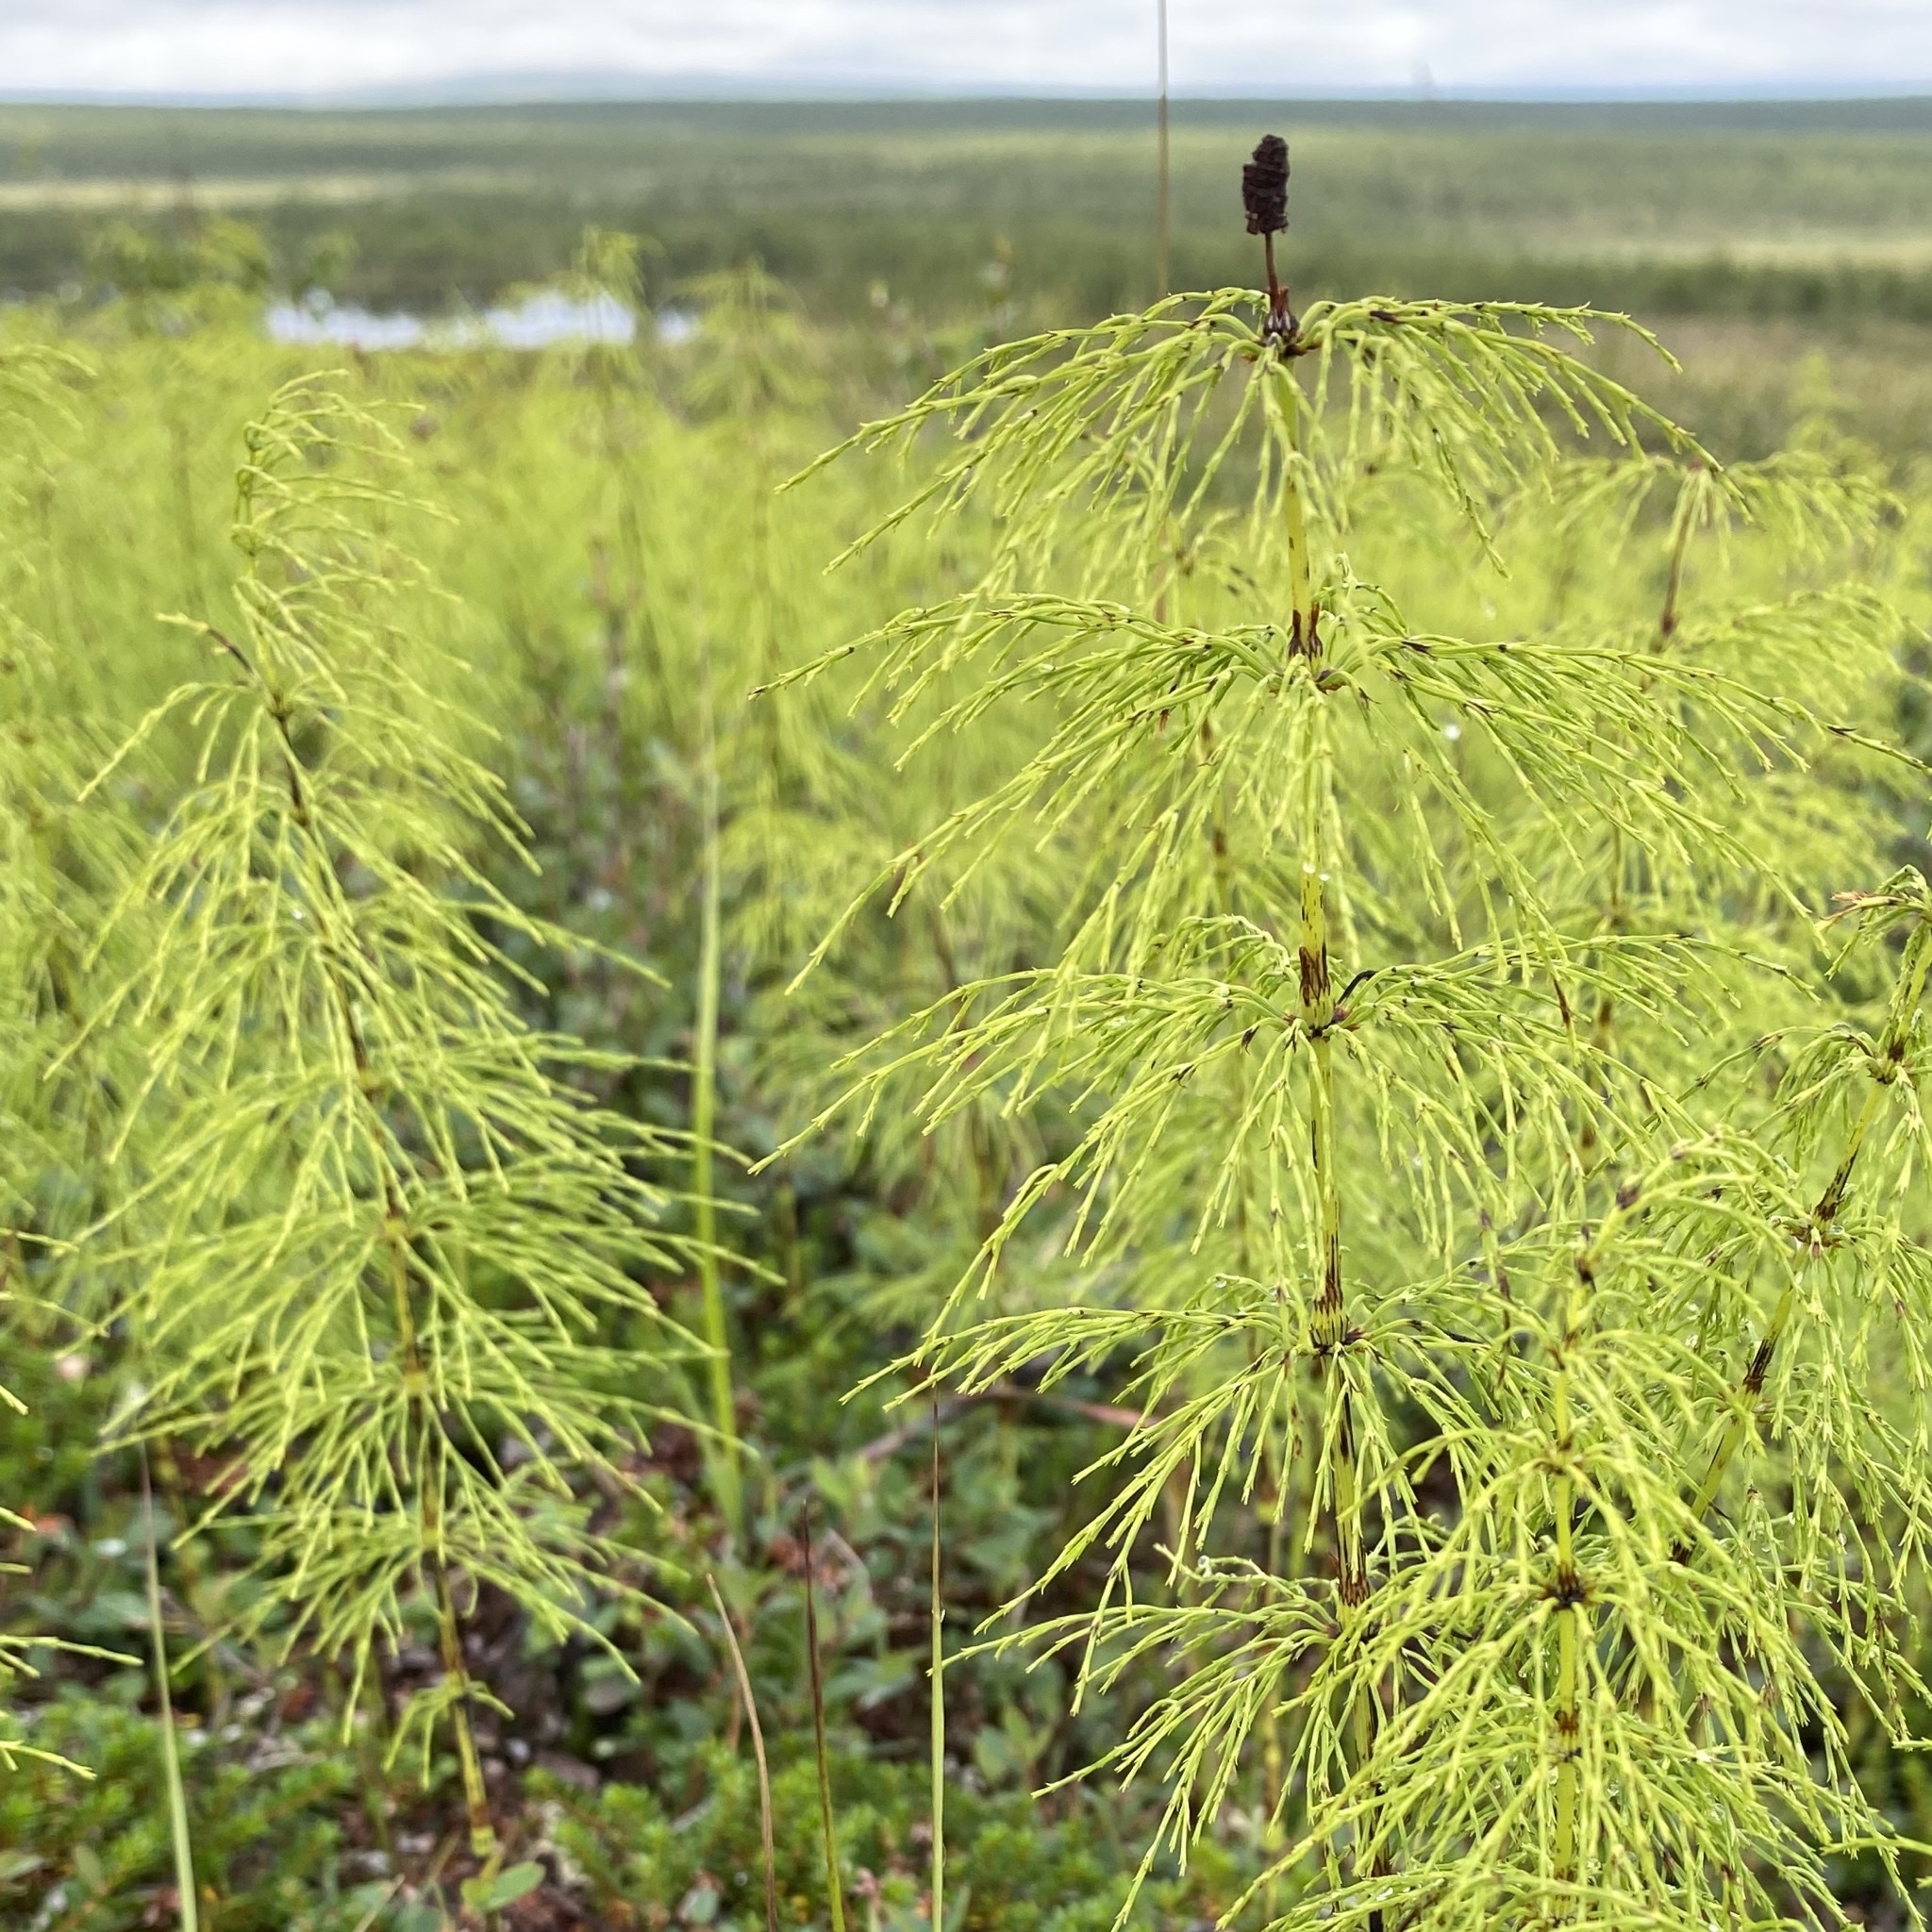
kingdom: Plantae
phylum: Tracheophyta
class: Polypodiopsida
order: Equisetales
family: Equisetaceae
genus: Equisetum
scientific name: Equisetum sylvaticum
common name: Wood horsetail
